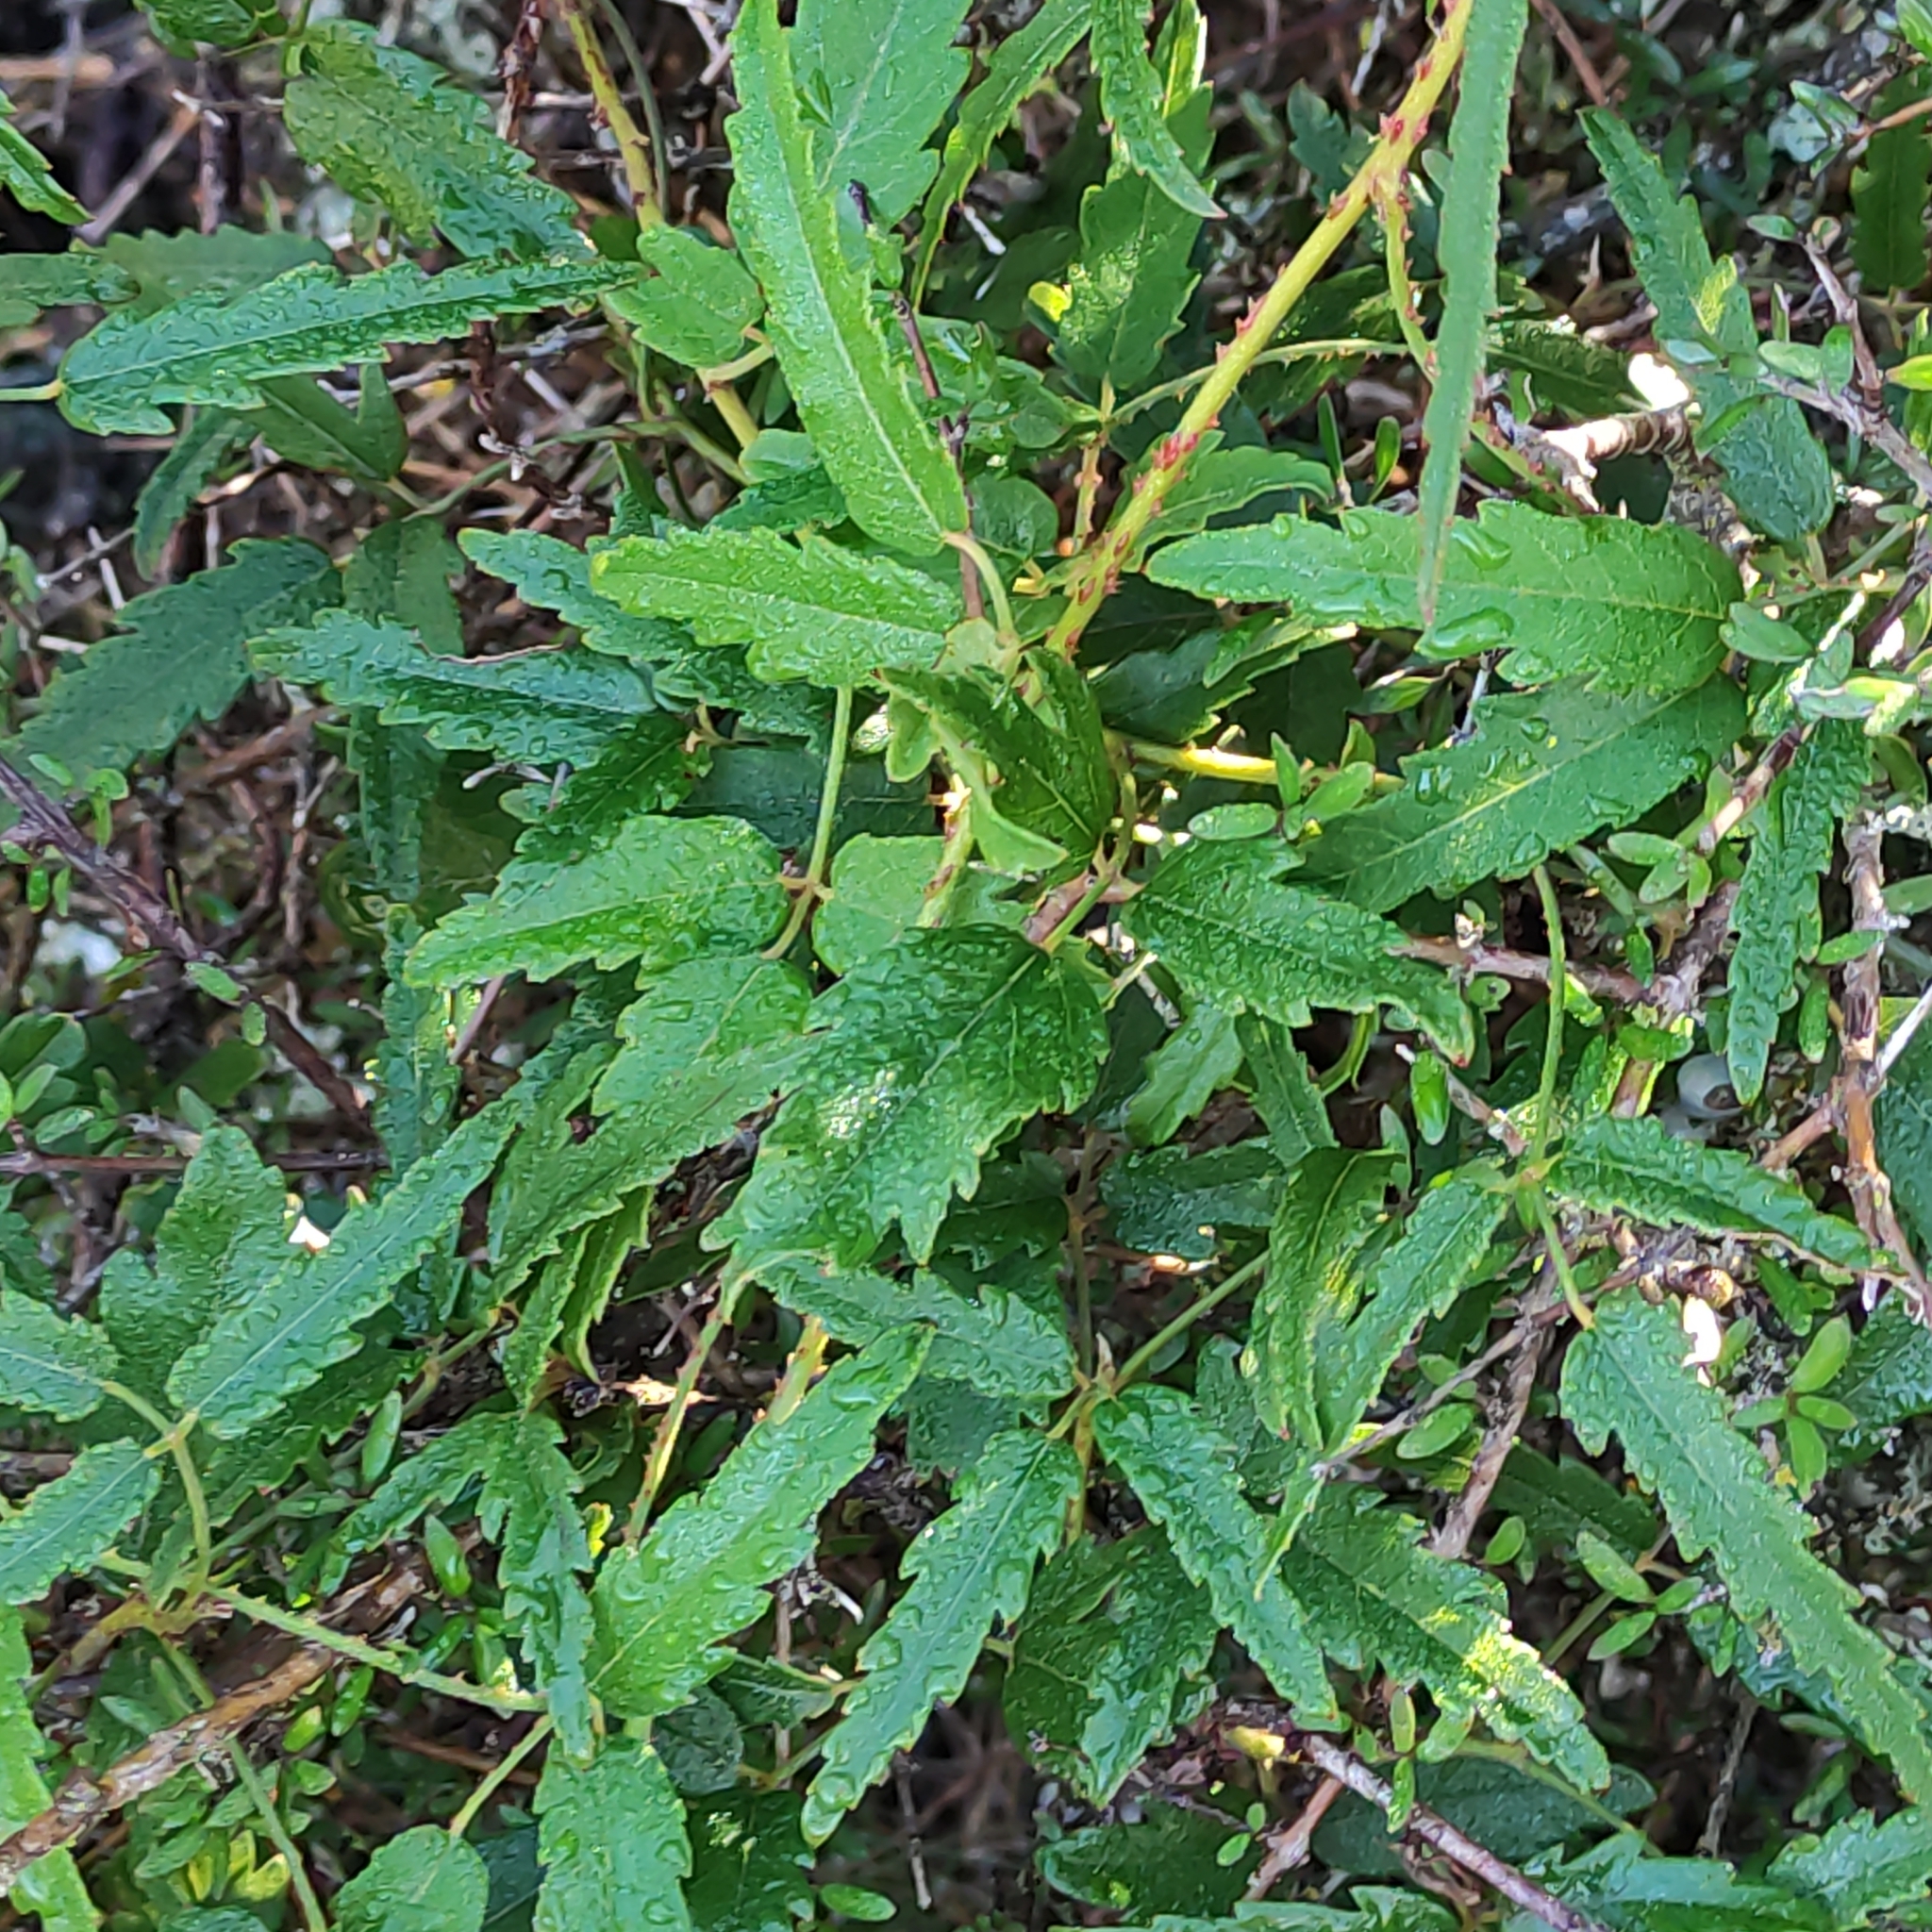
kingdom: Plantae
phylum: Tracheophyta
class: Magnoliopsida
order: Rosales
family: Rosaceae
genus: Rubus
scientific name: Rubus schmidelioides
